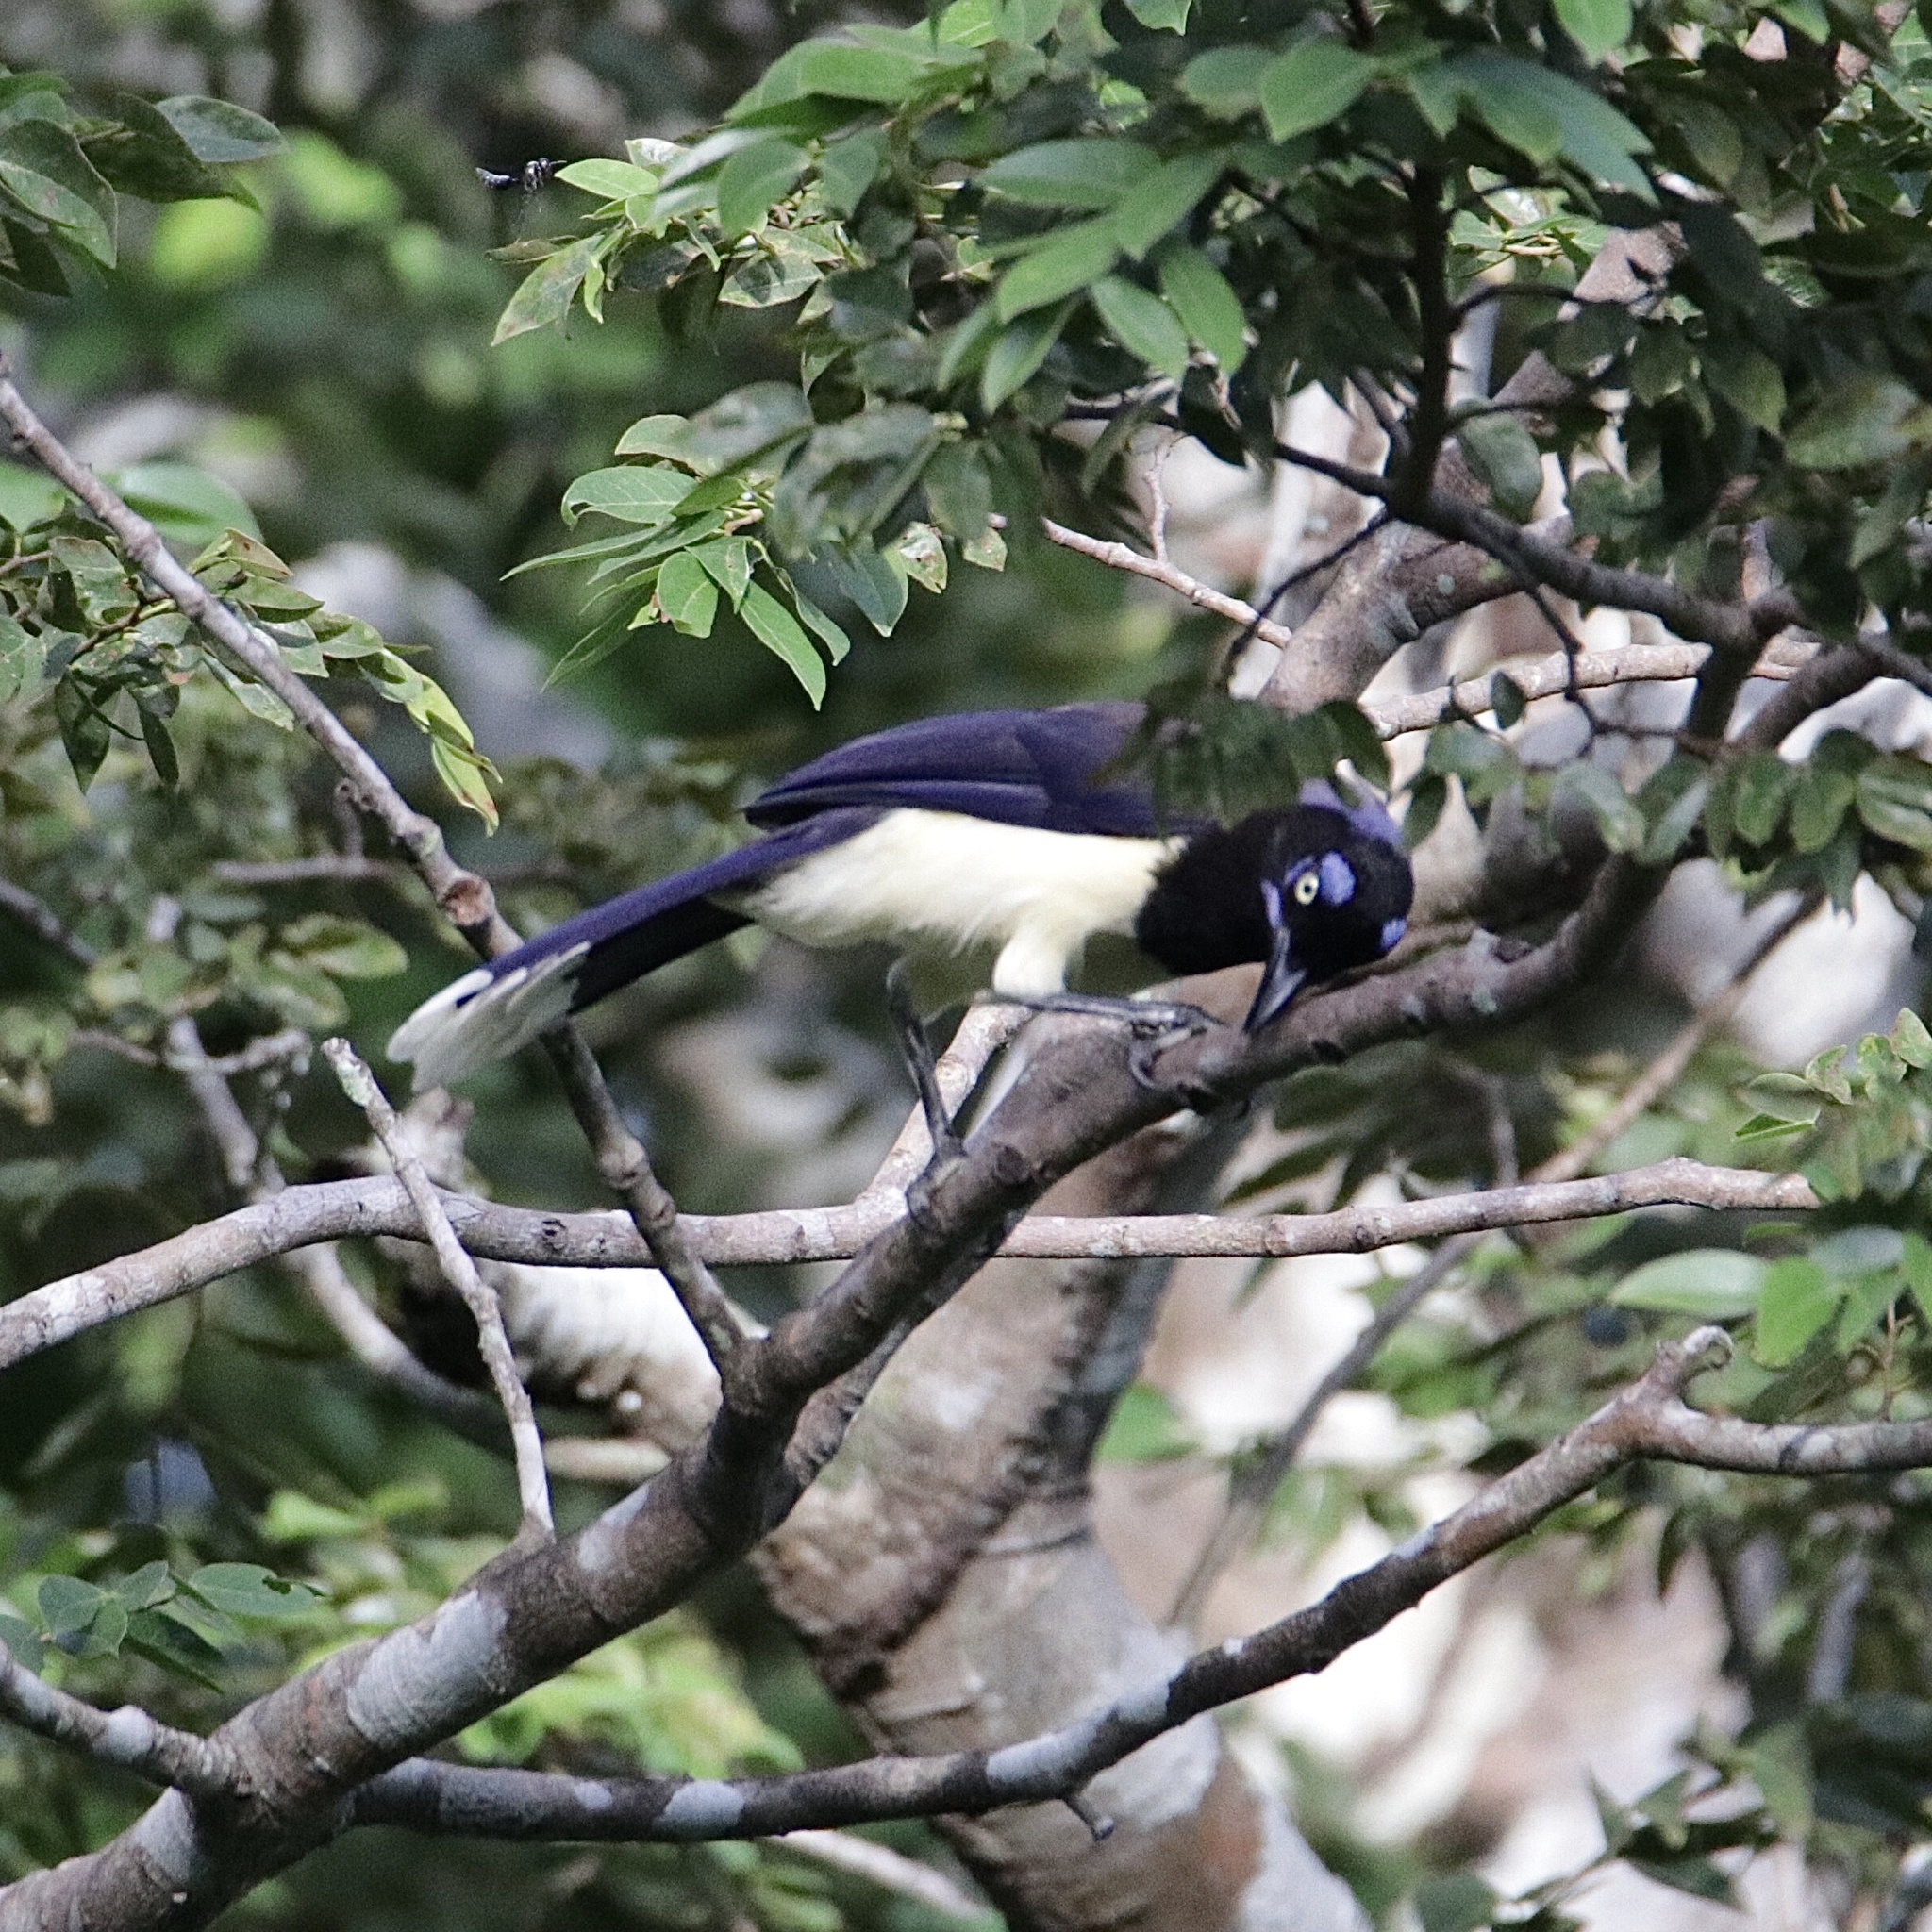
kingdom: Animalia
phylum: Chordata
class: Aves
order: Passeriformes
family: Corvidae
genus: Cyanocorax
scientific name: Cyanocorax affinis
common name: Black-chested jay
